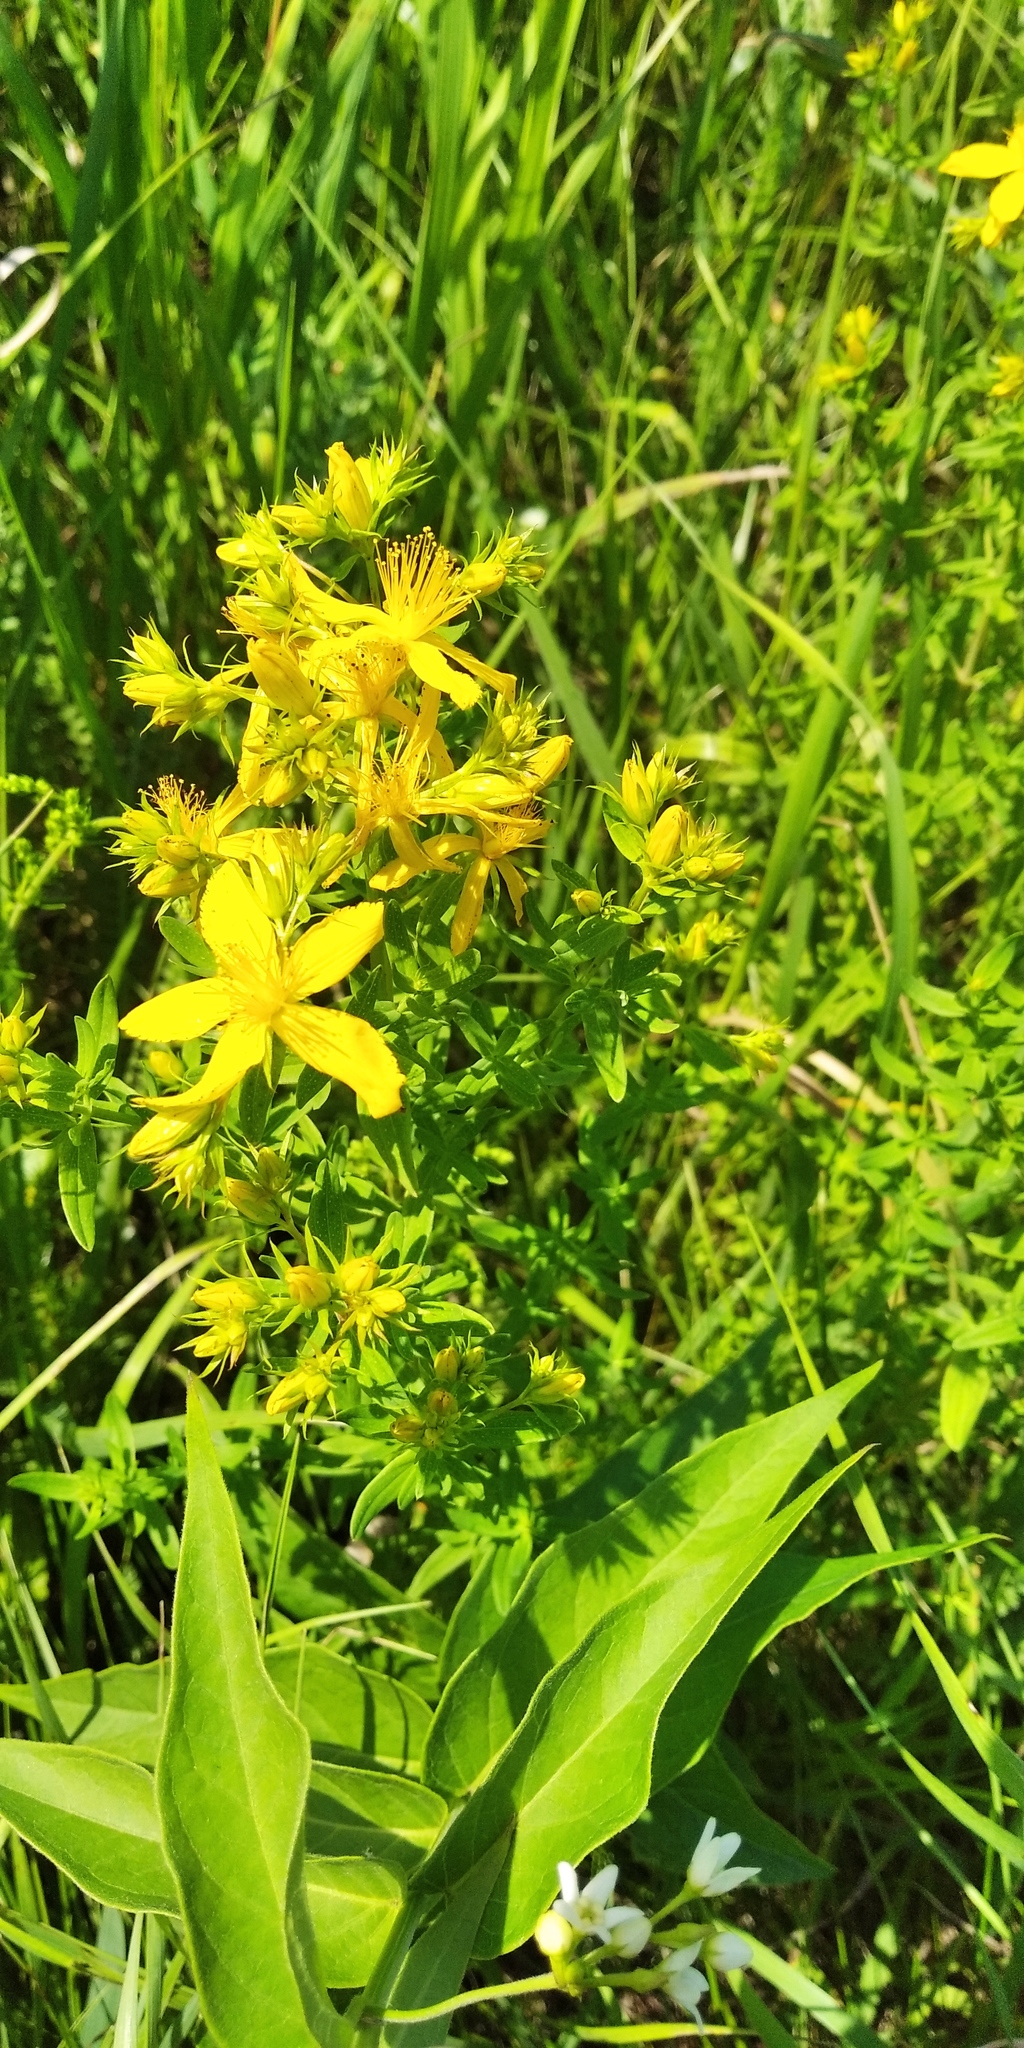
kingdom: Plantae
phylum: Tracheophyta
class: Magnoliopsida
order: Malpighiales
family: Hypericaceae
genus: Hypericum
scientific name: Hypericum perforatum
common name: Common st. johnswort
